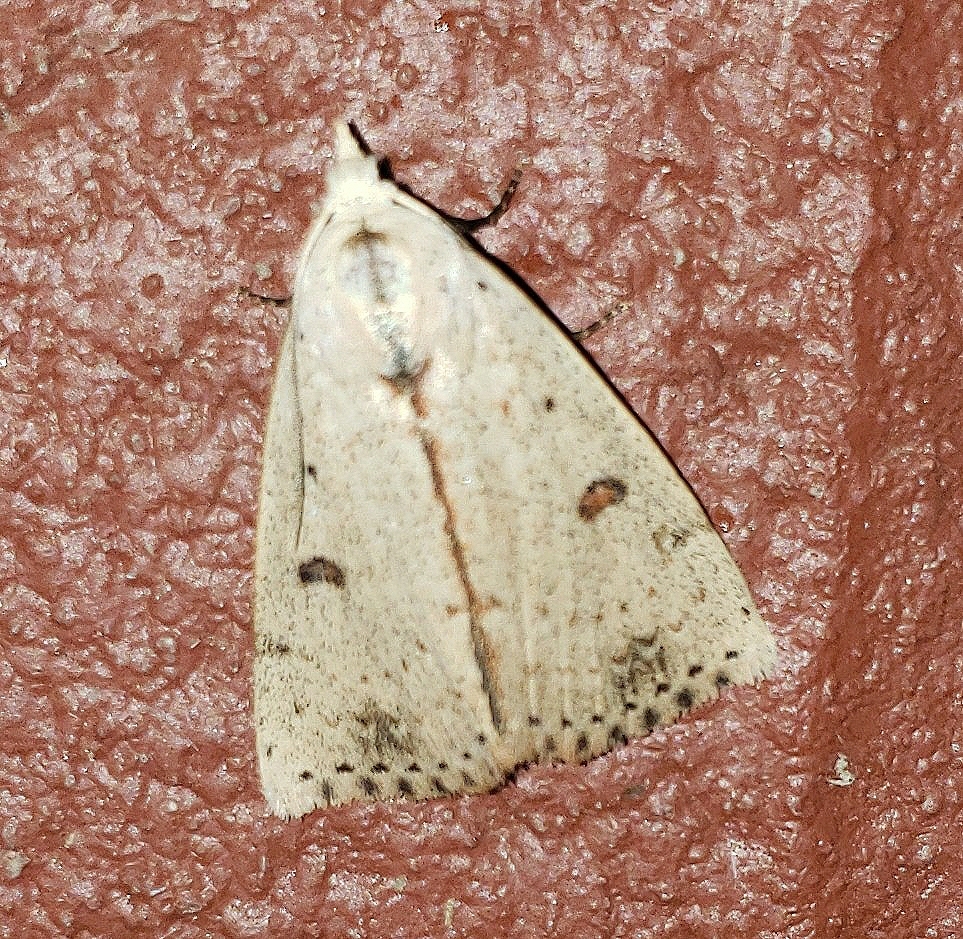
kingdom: Animalia
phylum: Arthropoda
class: Insecta
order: Lepidoptera
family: Erebidae
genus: Scolecocampa
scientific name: Scolecocampa liburna
